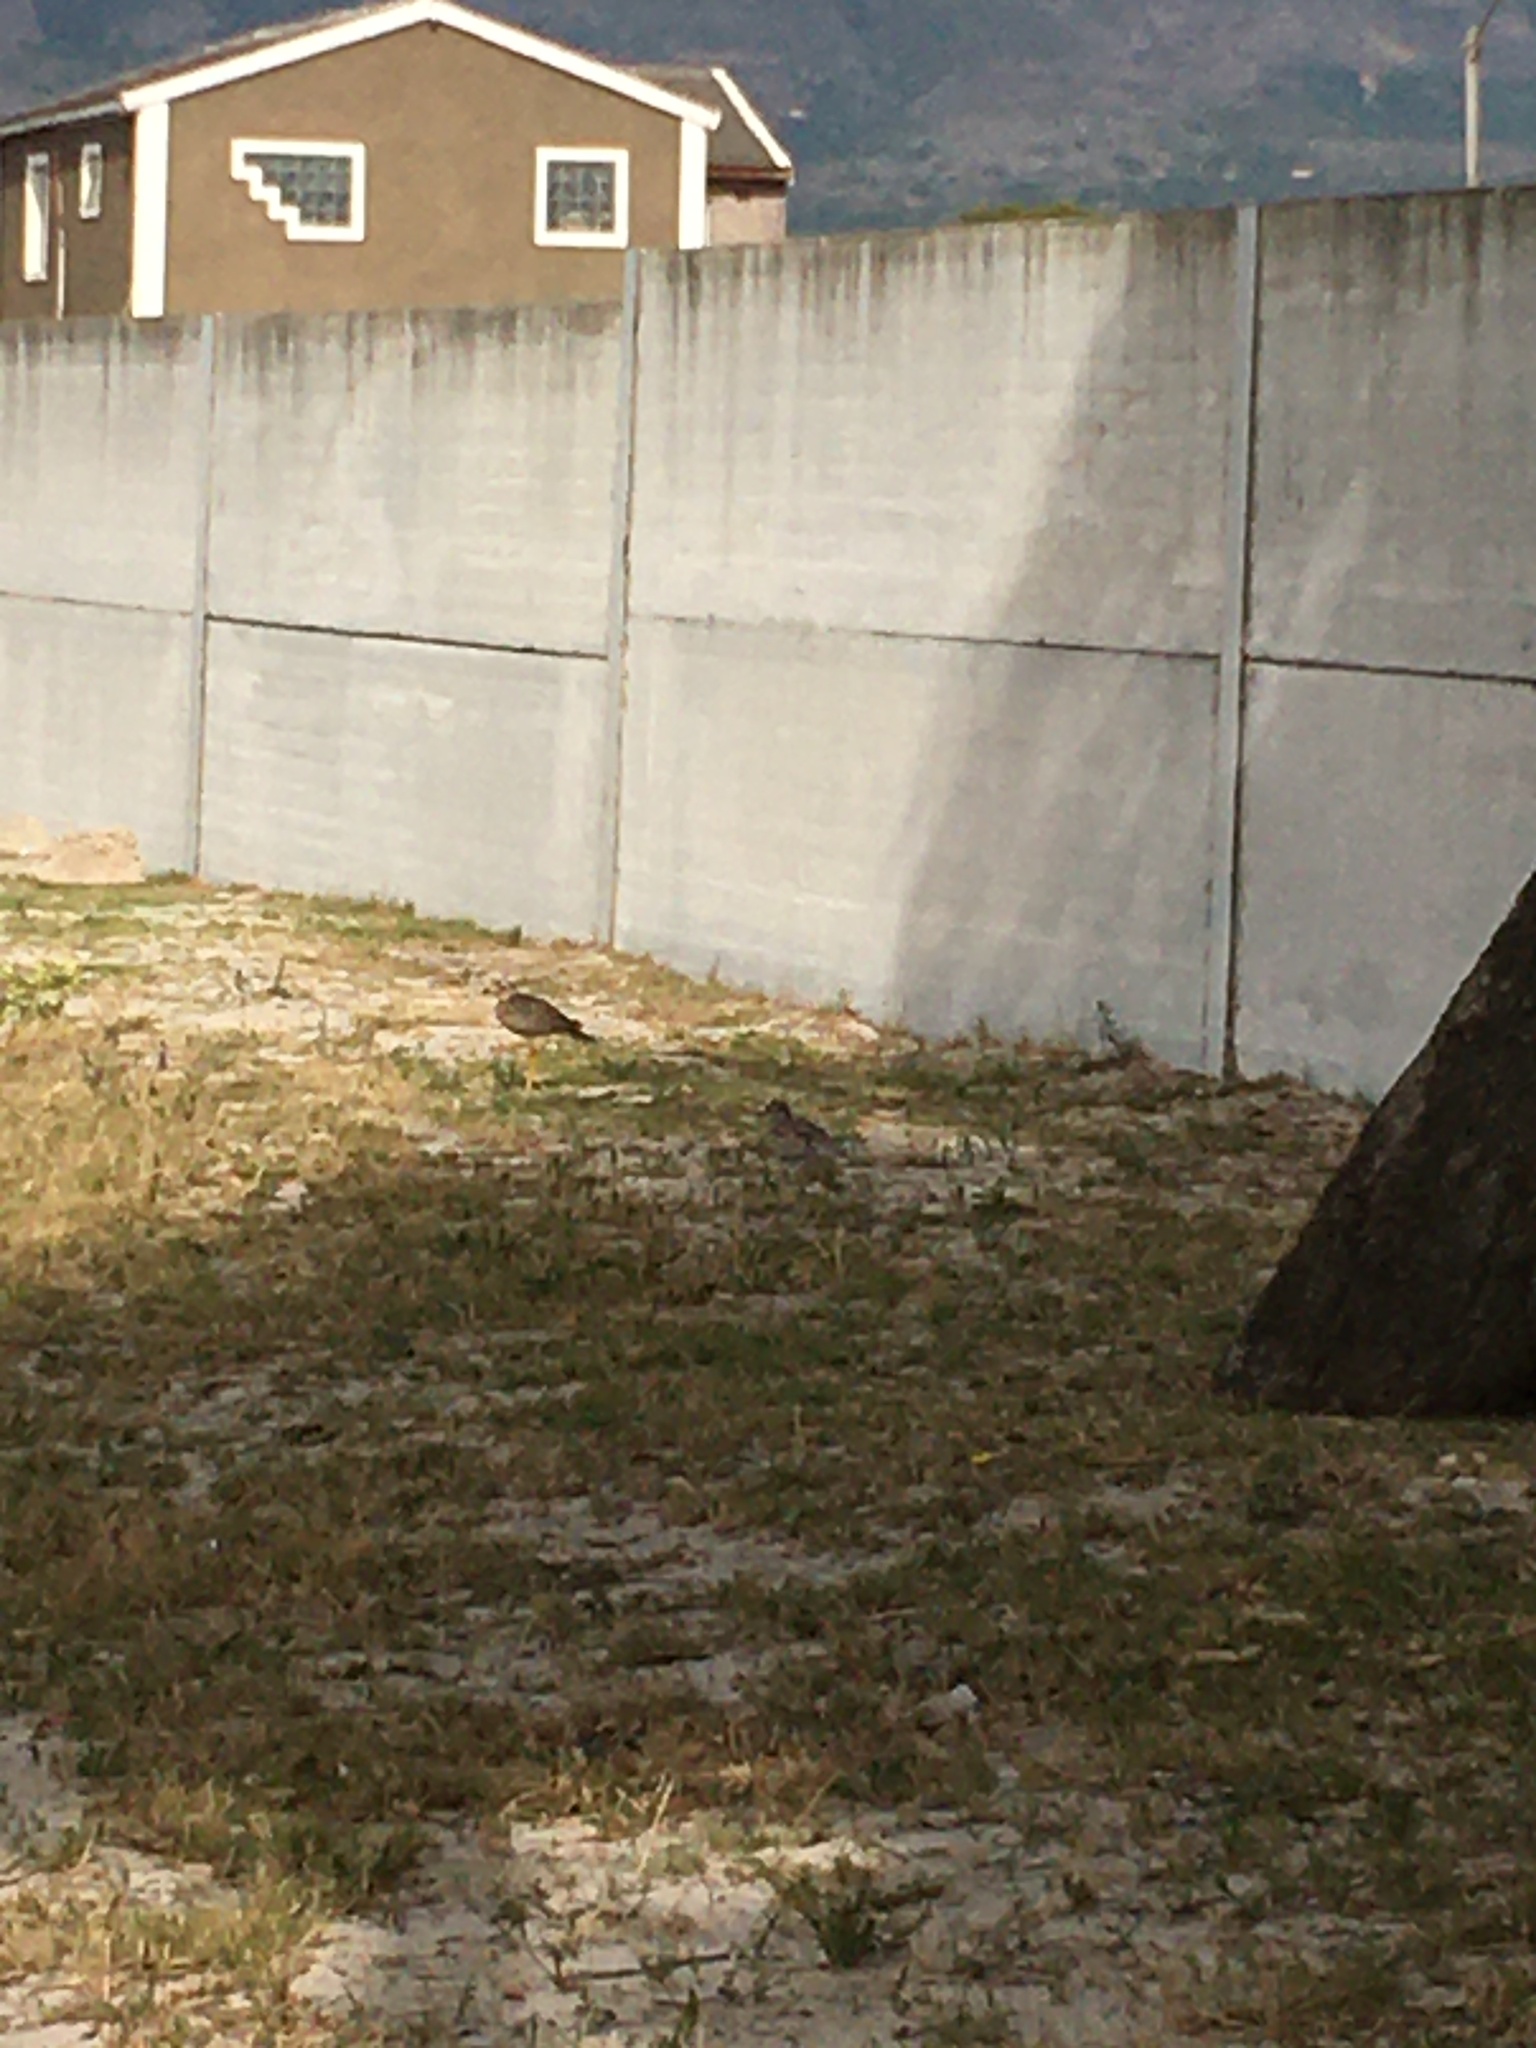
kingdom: Animalia
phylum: Chordata
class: Aves
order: Charadriiformes
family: Burhinidae
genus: Burhinus
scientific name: Burhinus capensis
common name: Spotted thick-knee
